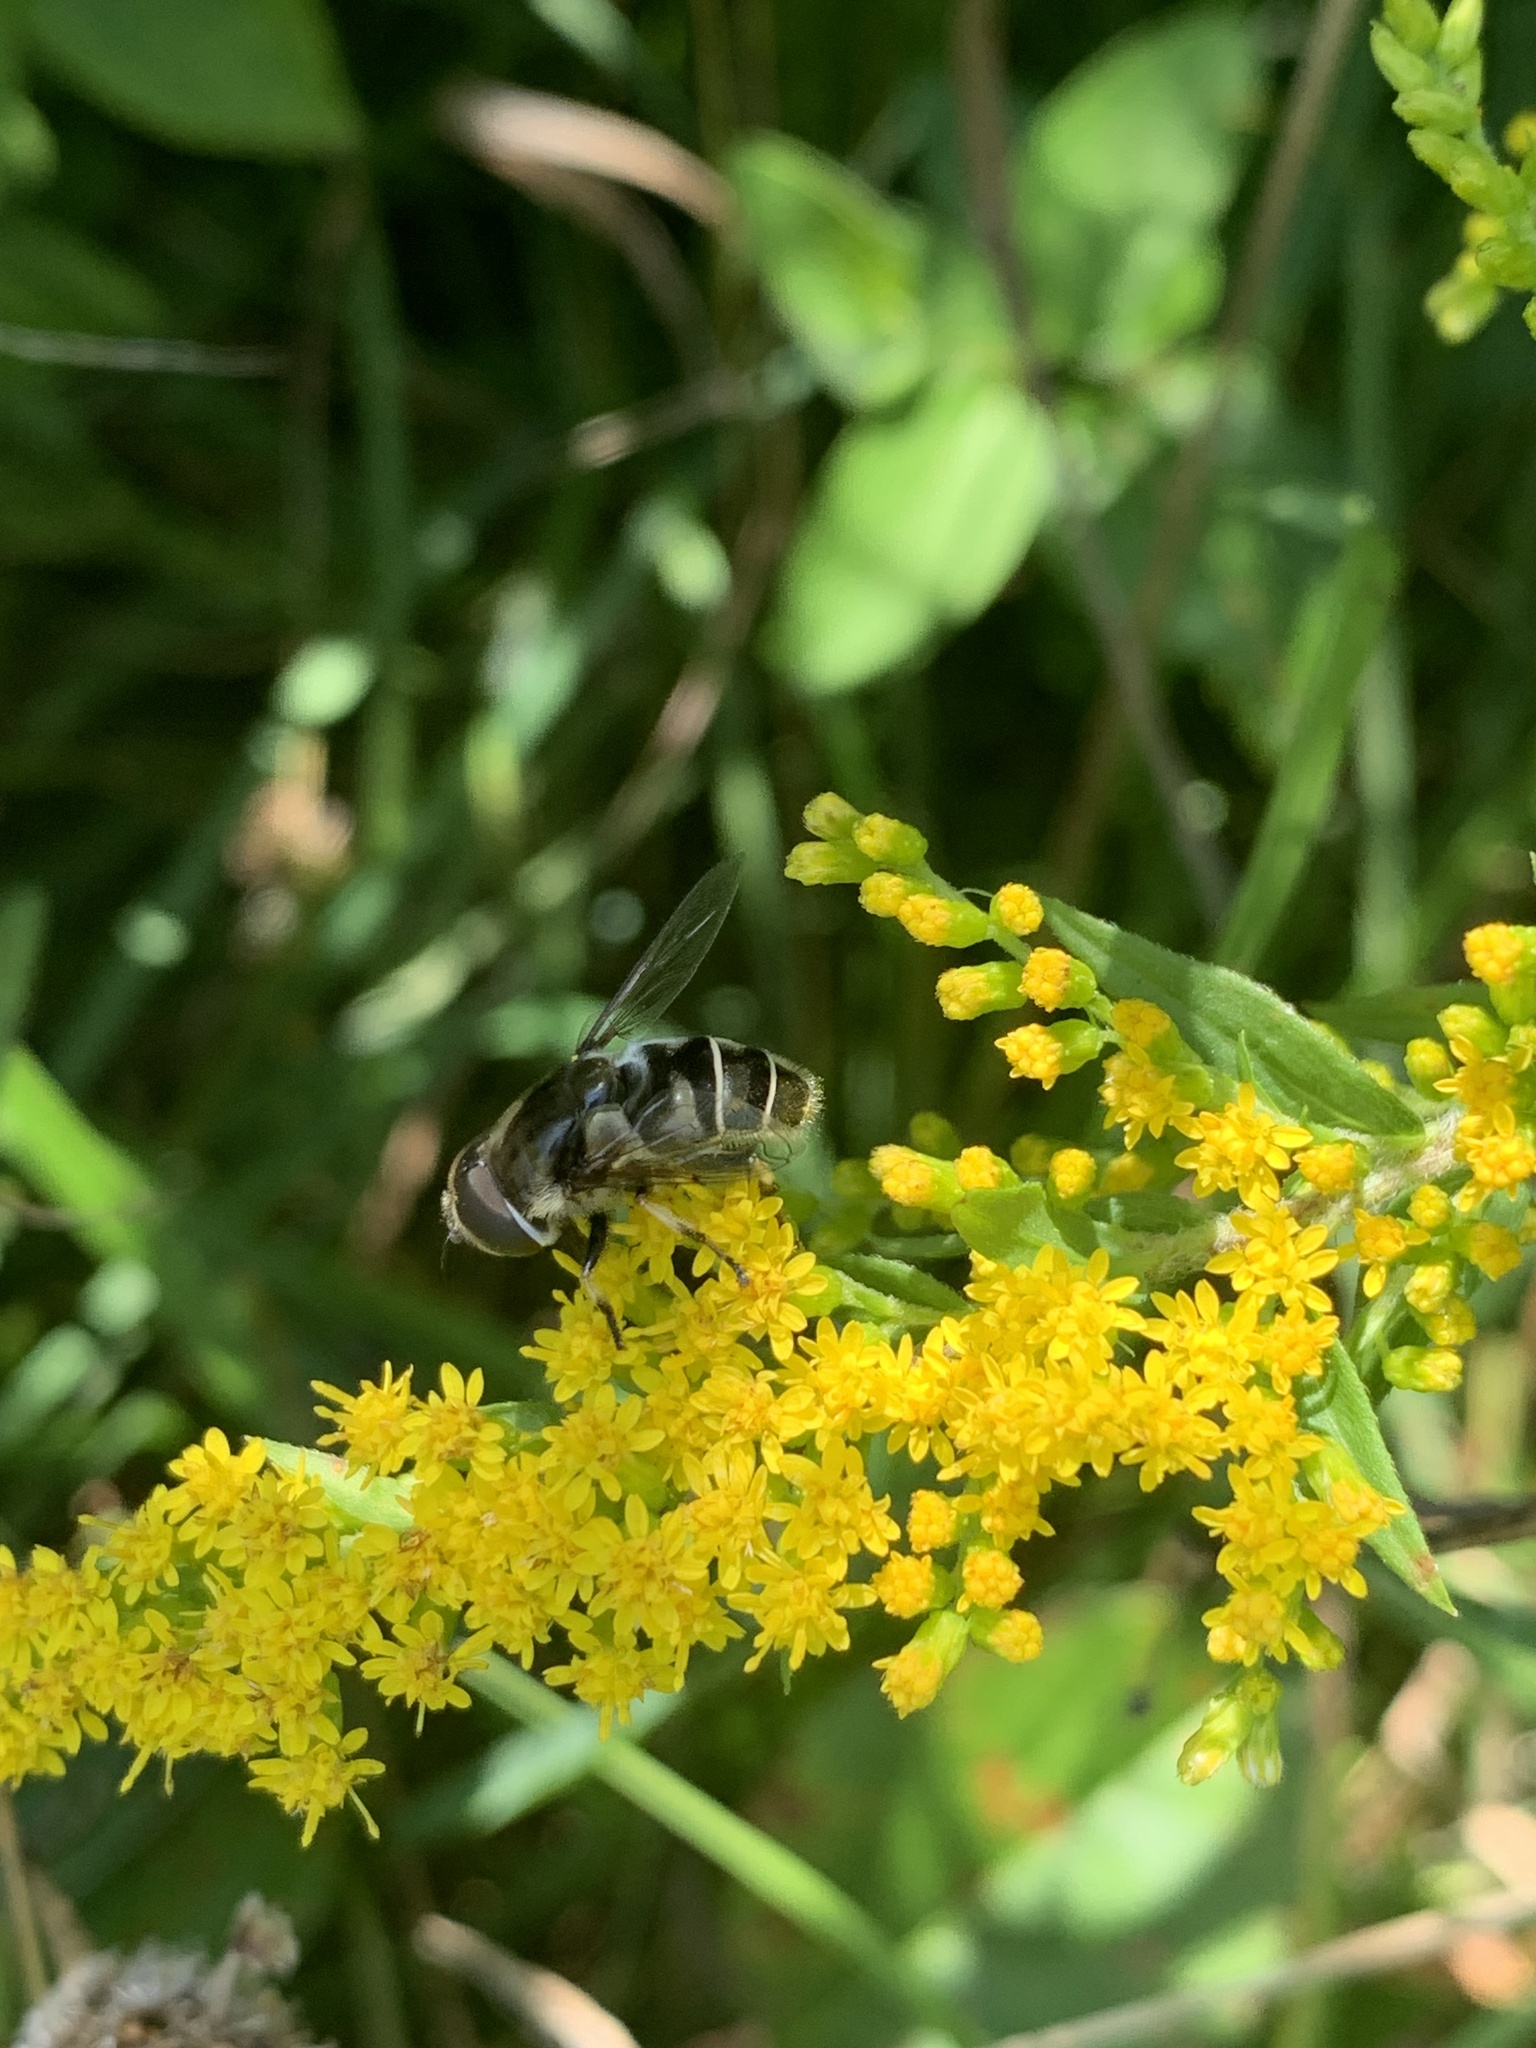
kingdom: Animalia
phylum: Arthropoda
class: Insecta
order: Diptera
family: Syrphidae
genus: Eristalis
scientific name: Eristalis dimidiata
